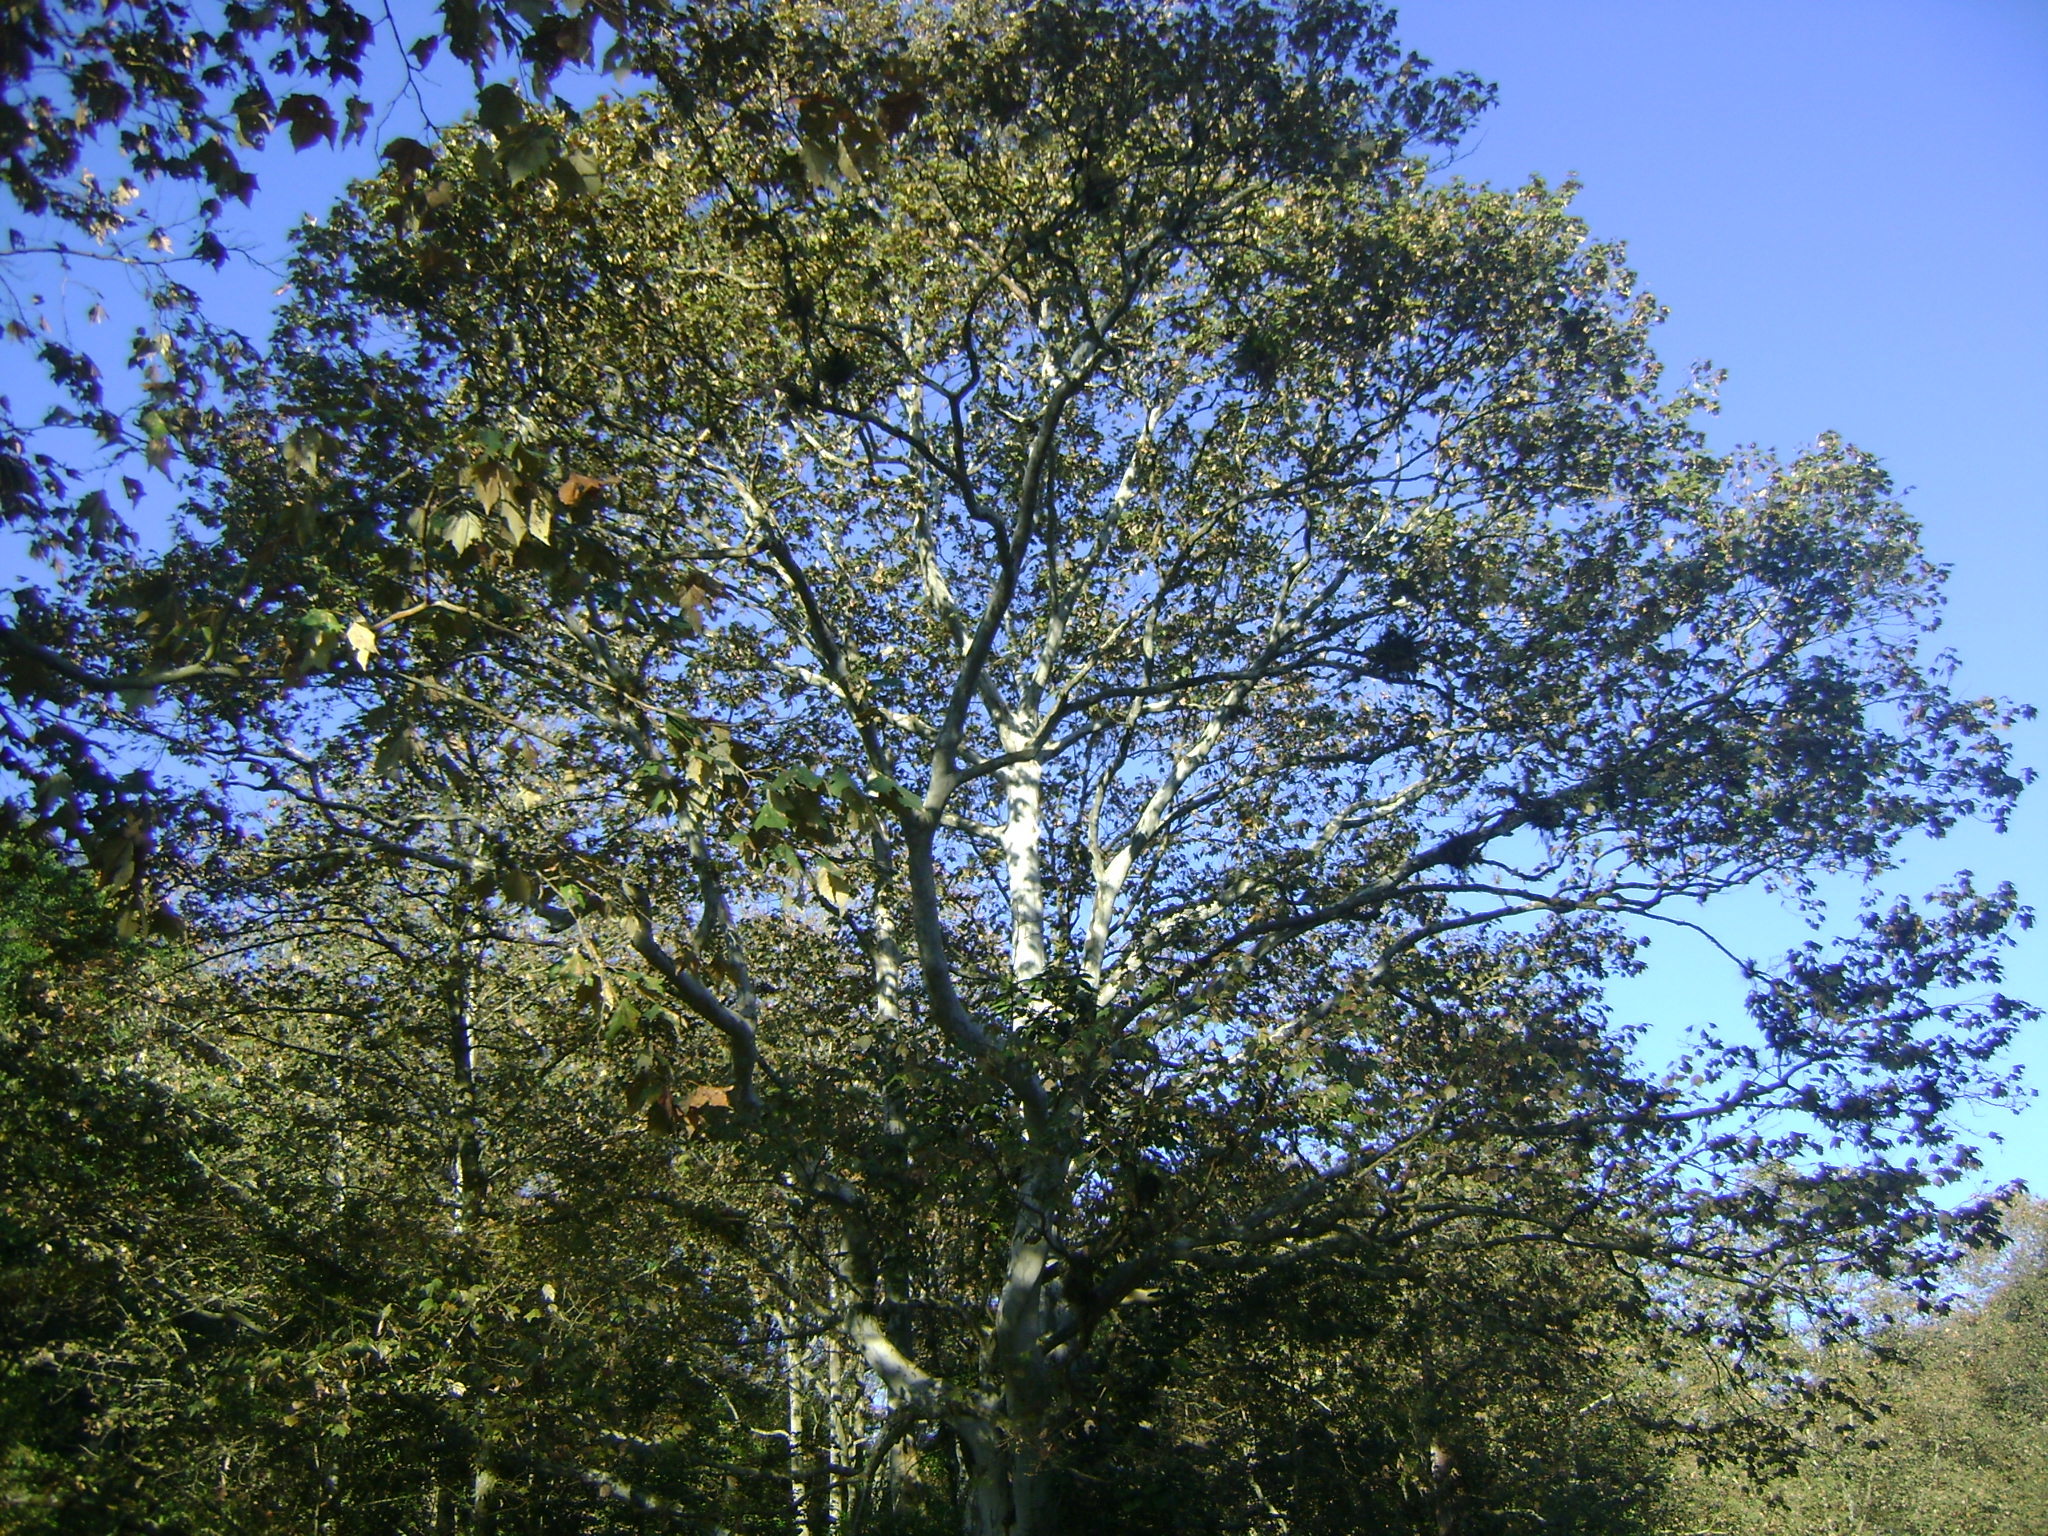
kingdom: Plantae
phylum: Tracheophyta
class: Magnoliopsida
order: Proteales
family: Platanaceae
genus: Platanus
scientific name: Platanus mexicana
